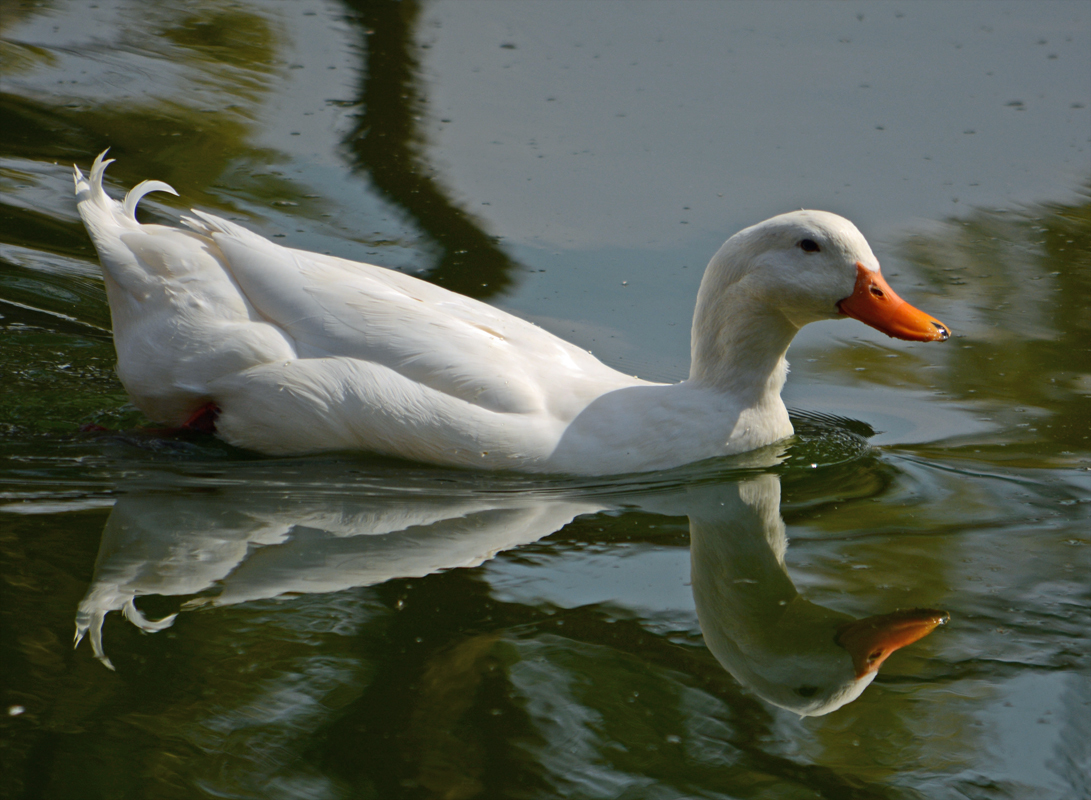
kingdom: Animalia
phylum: Chordata
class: Aves
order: Anseriformes
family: Anatidae
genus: Anas
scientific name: Anas platyrhynchos
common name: Mallard
